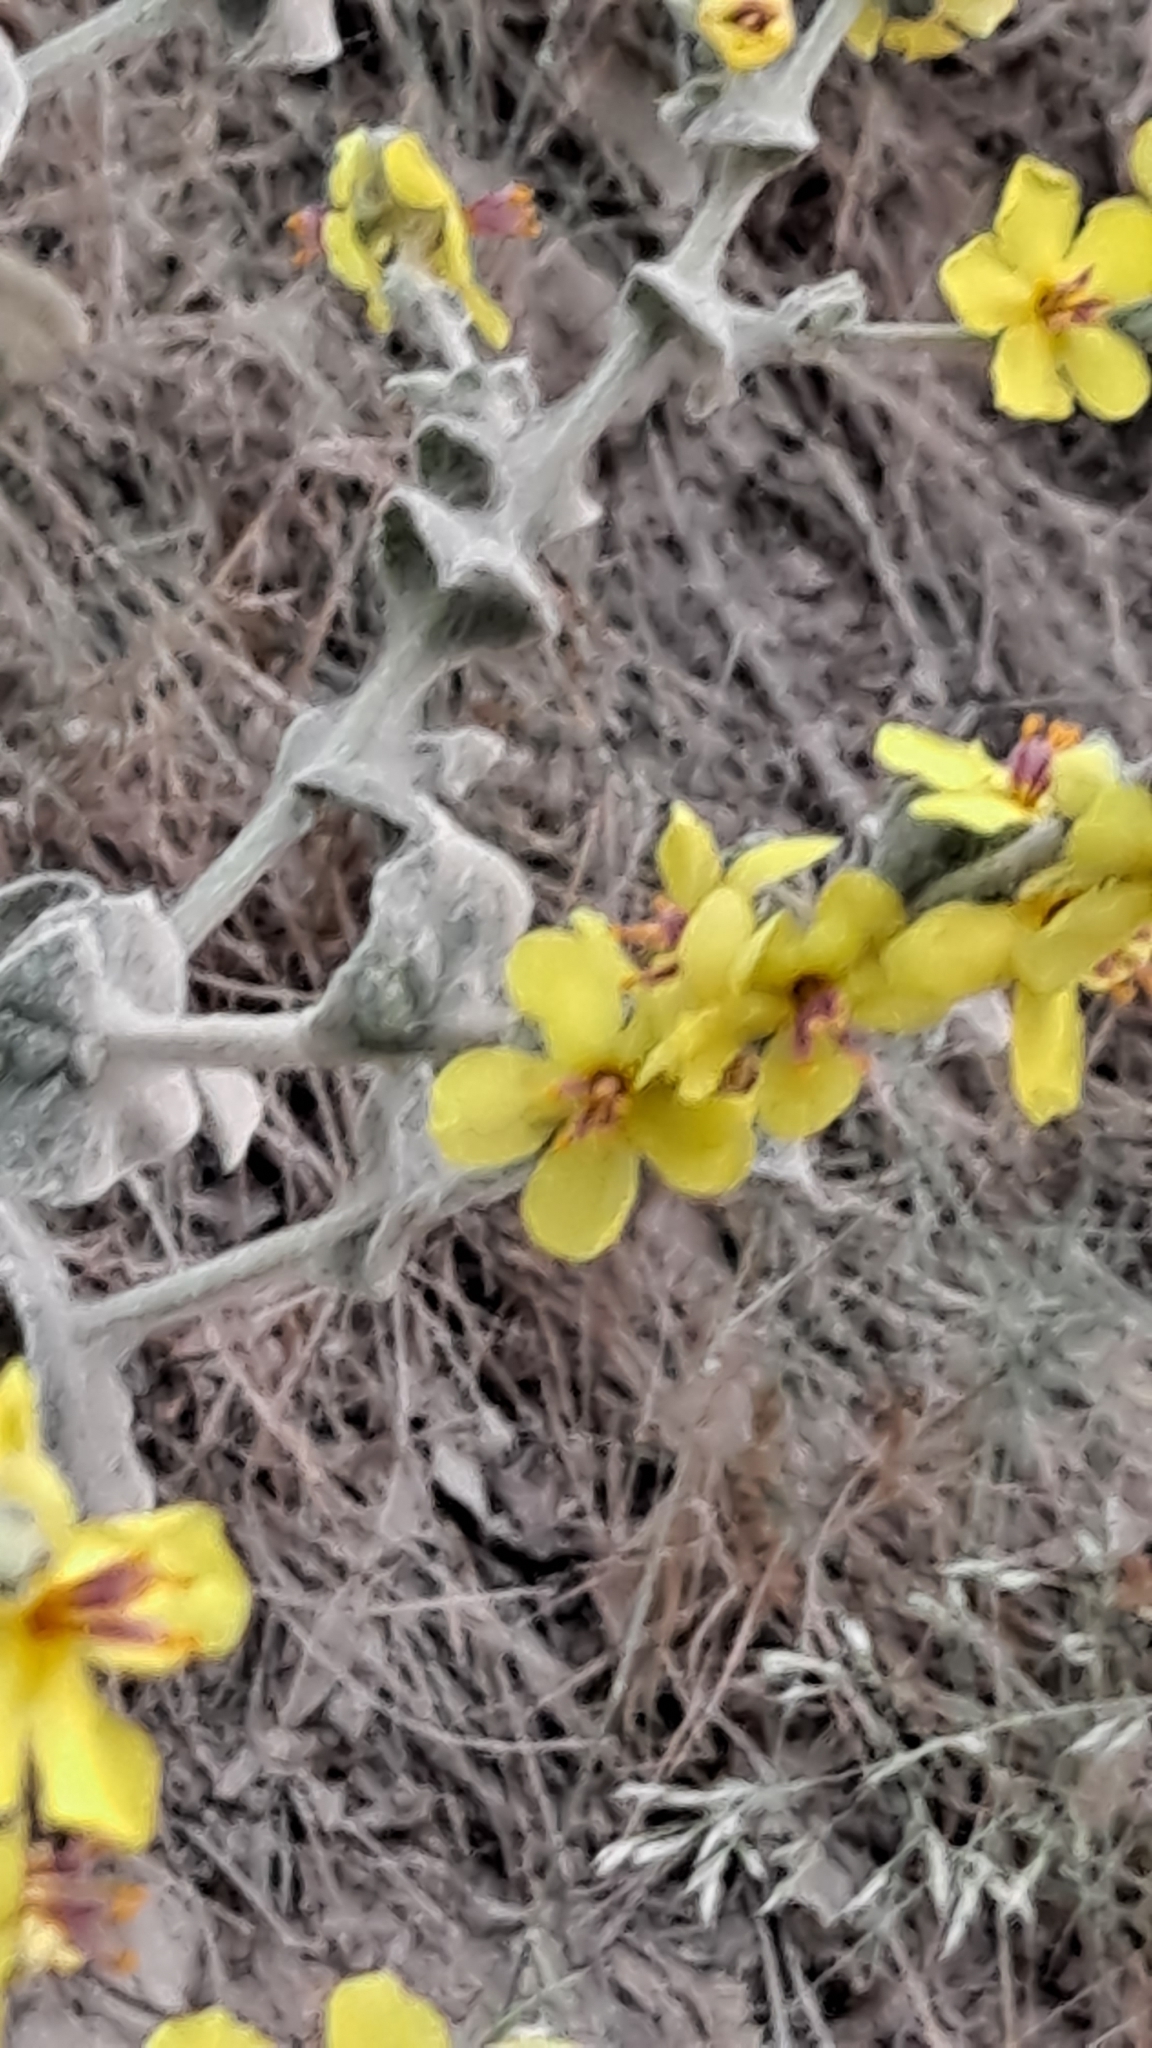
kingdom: Plantae
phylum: Tracheophyta
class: Magnoliopsida
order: Lamiales
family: Scrophulariaceae
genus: Verbascum
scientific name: Verbascum pulverulentum
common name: Broad-leaf mullein
